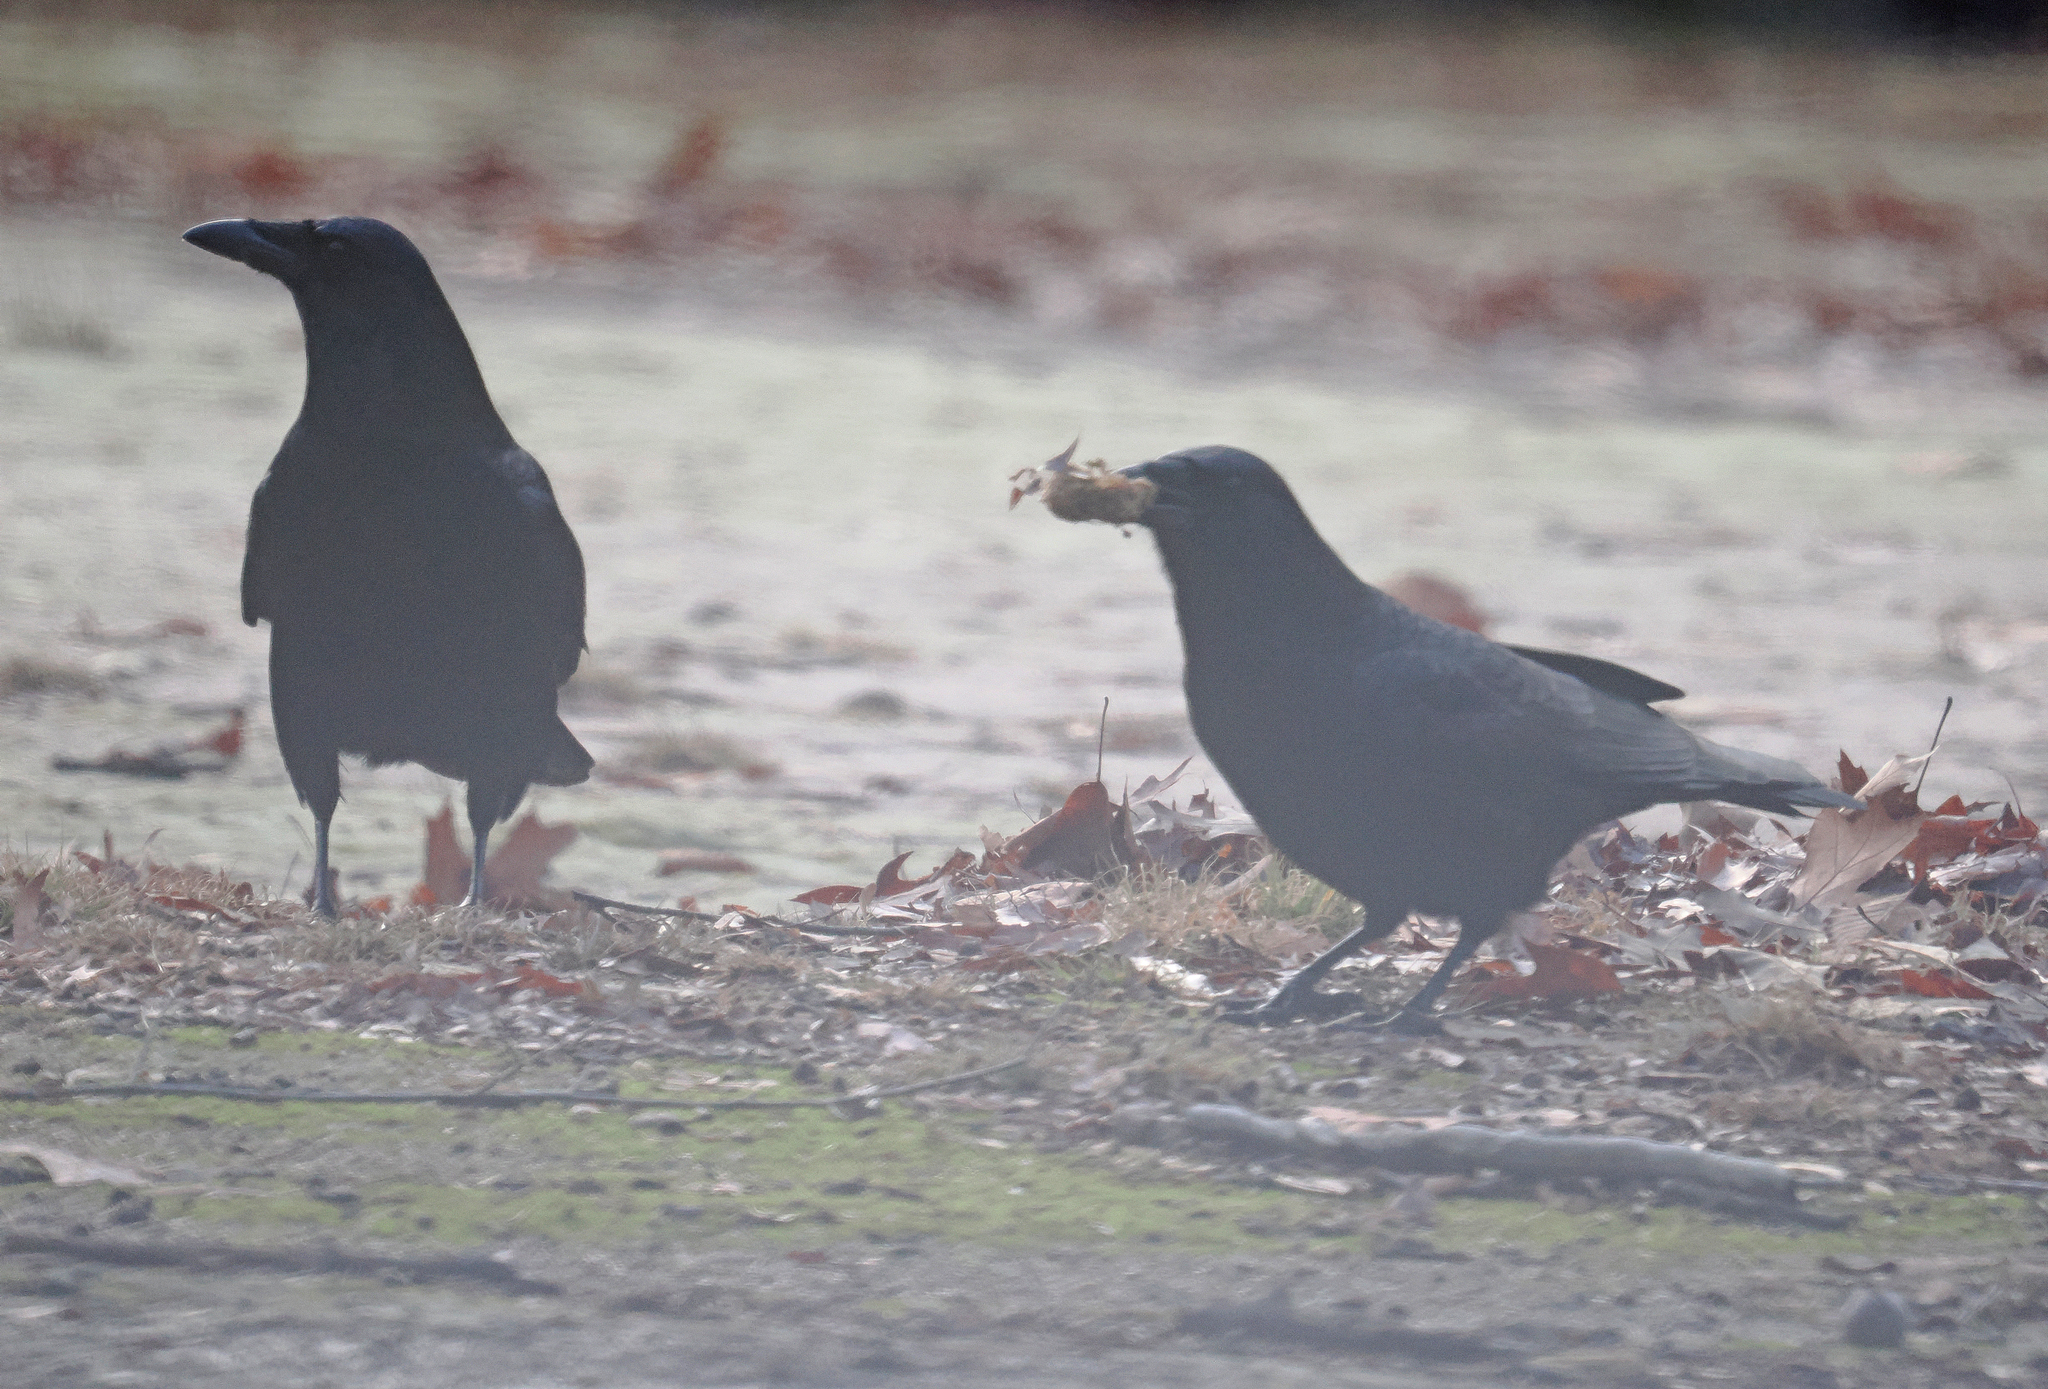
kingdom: Animalia
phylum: Chordata
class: Aves
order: Passeriformes
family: Corvidae
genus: Corvus
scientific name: Corvus ossifragus
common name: Fish crow
